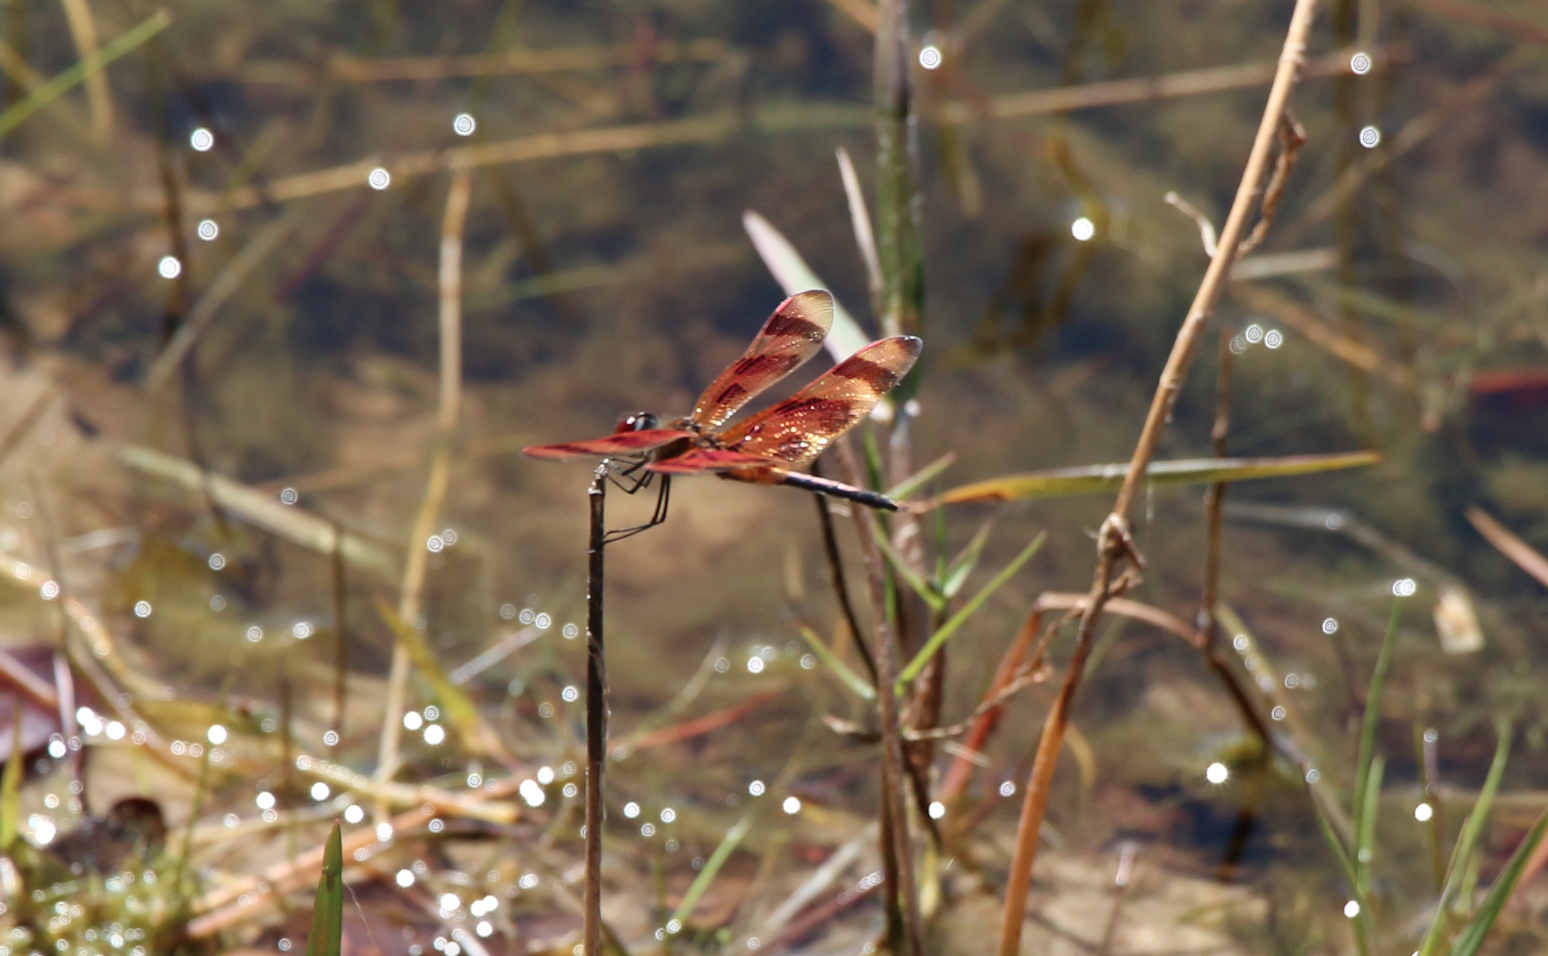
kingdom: Animalia
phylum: Arthropoda
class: Insecta
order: Odonata
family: Libellulidae
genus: Celithemis
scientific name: Celithemis eponina
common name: Halloween pennant
